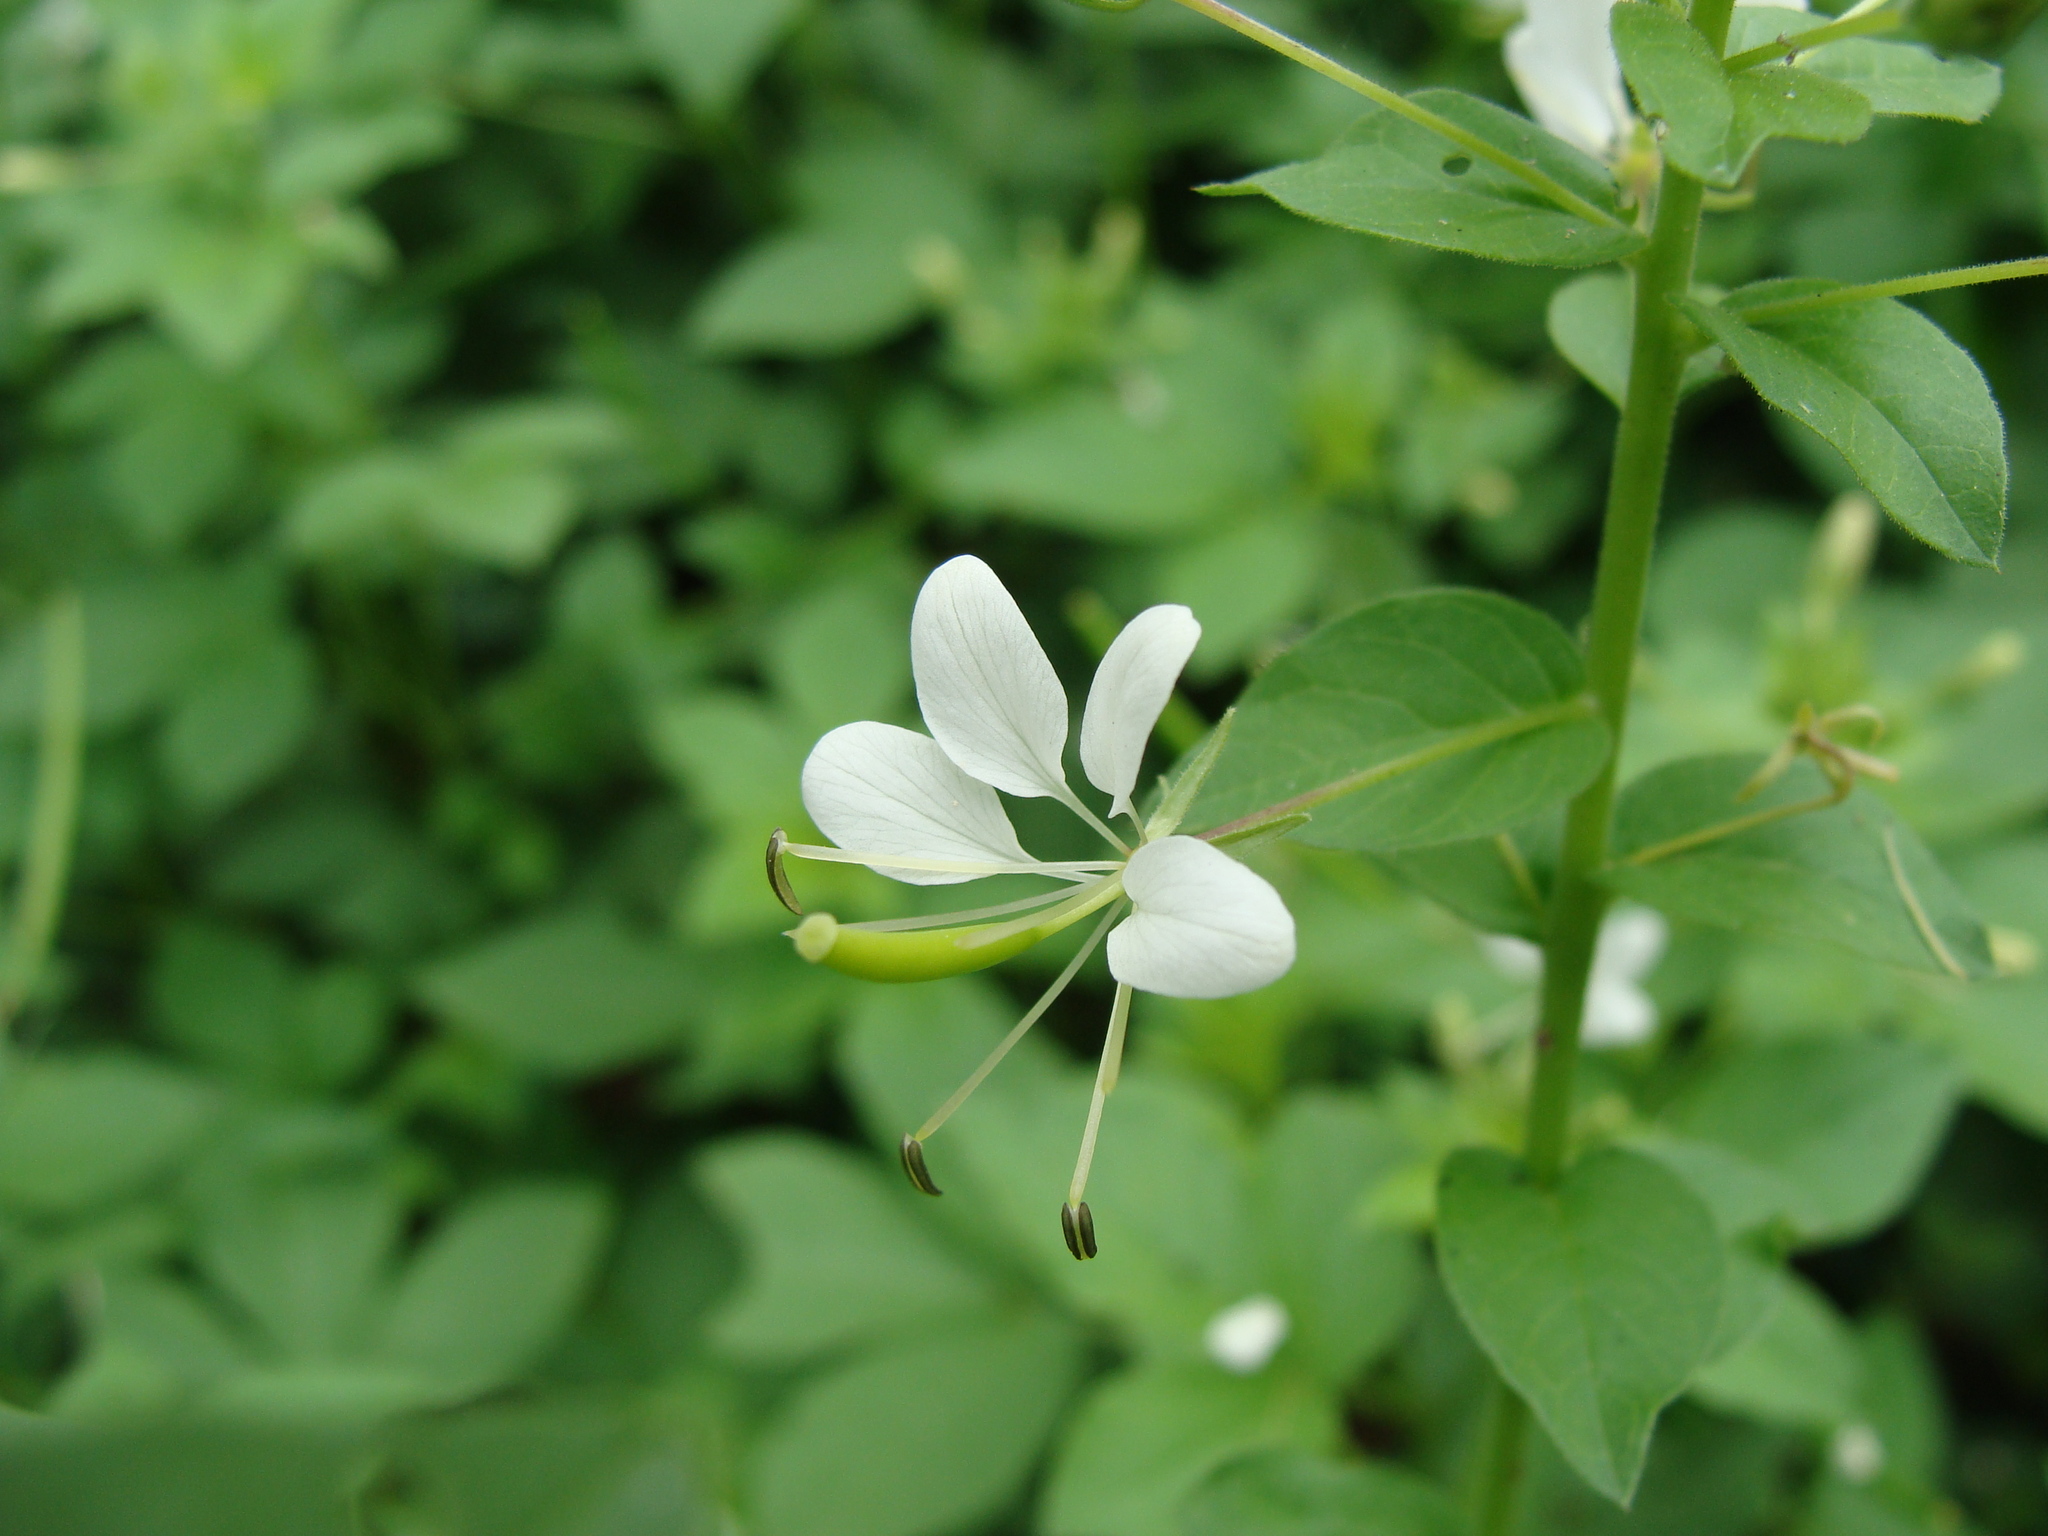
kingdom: Plantae
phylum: Tracheophyta
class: Magnoliopsida
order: Brassicales
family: Cleomaceae
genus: Cleoserrata
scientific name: Cleoserrata serrata
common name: Toothed spiderflower
